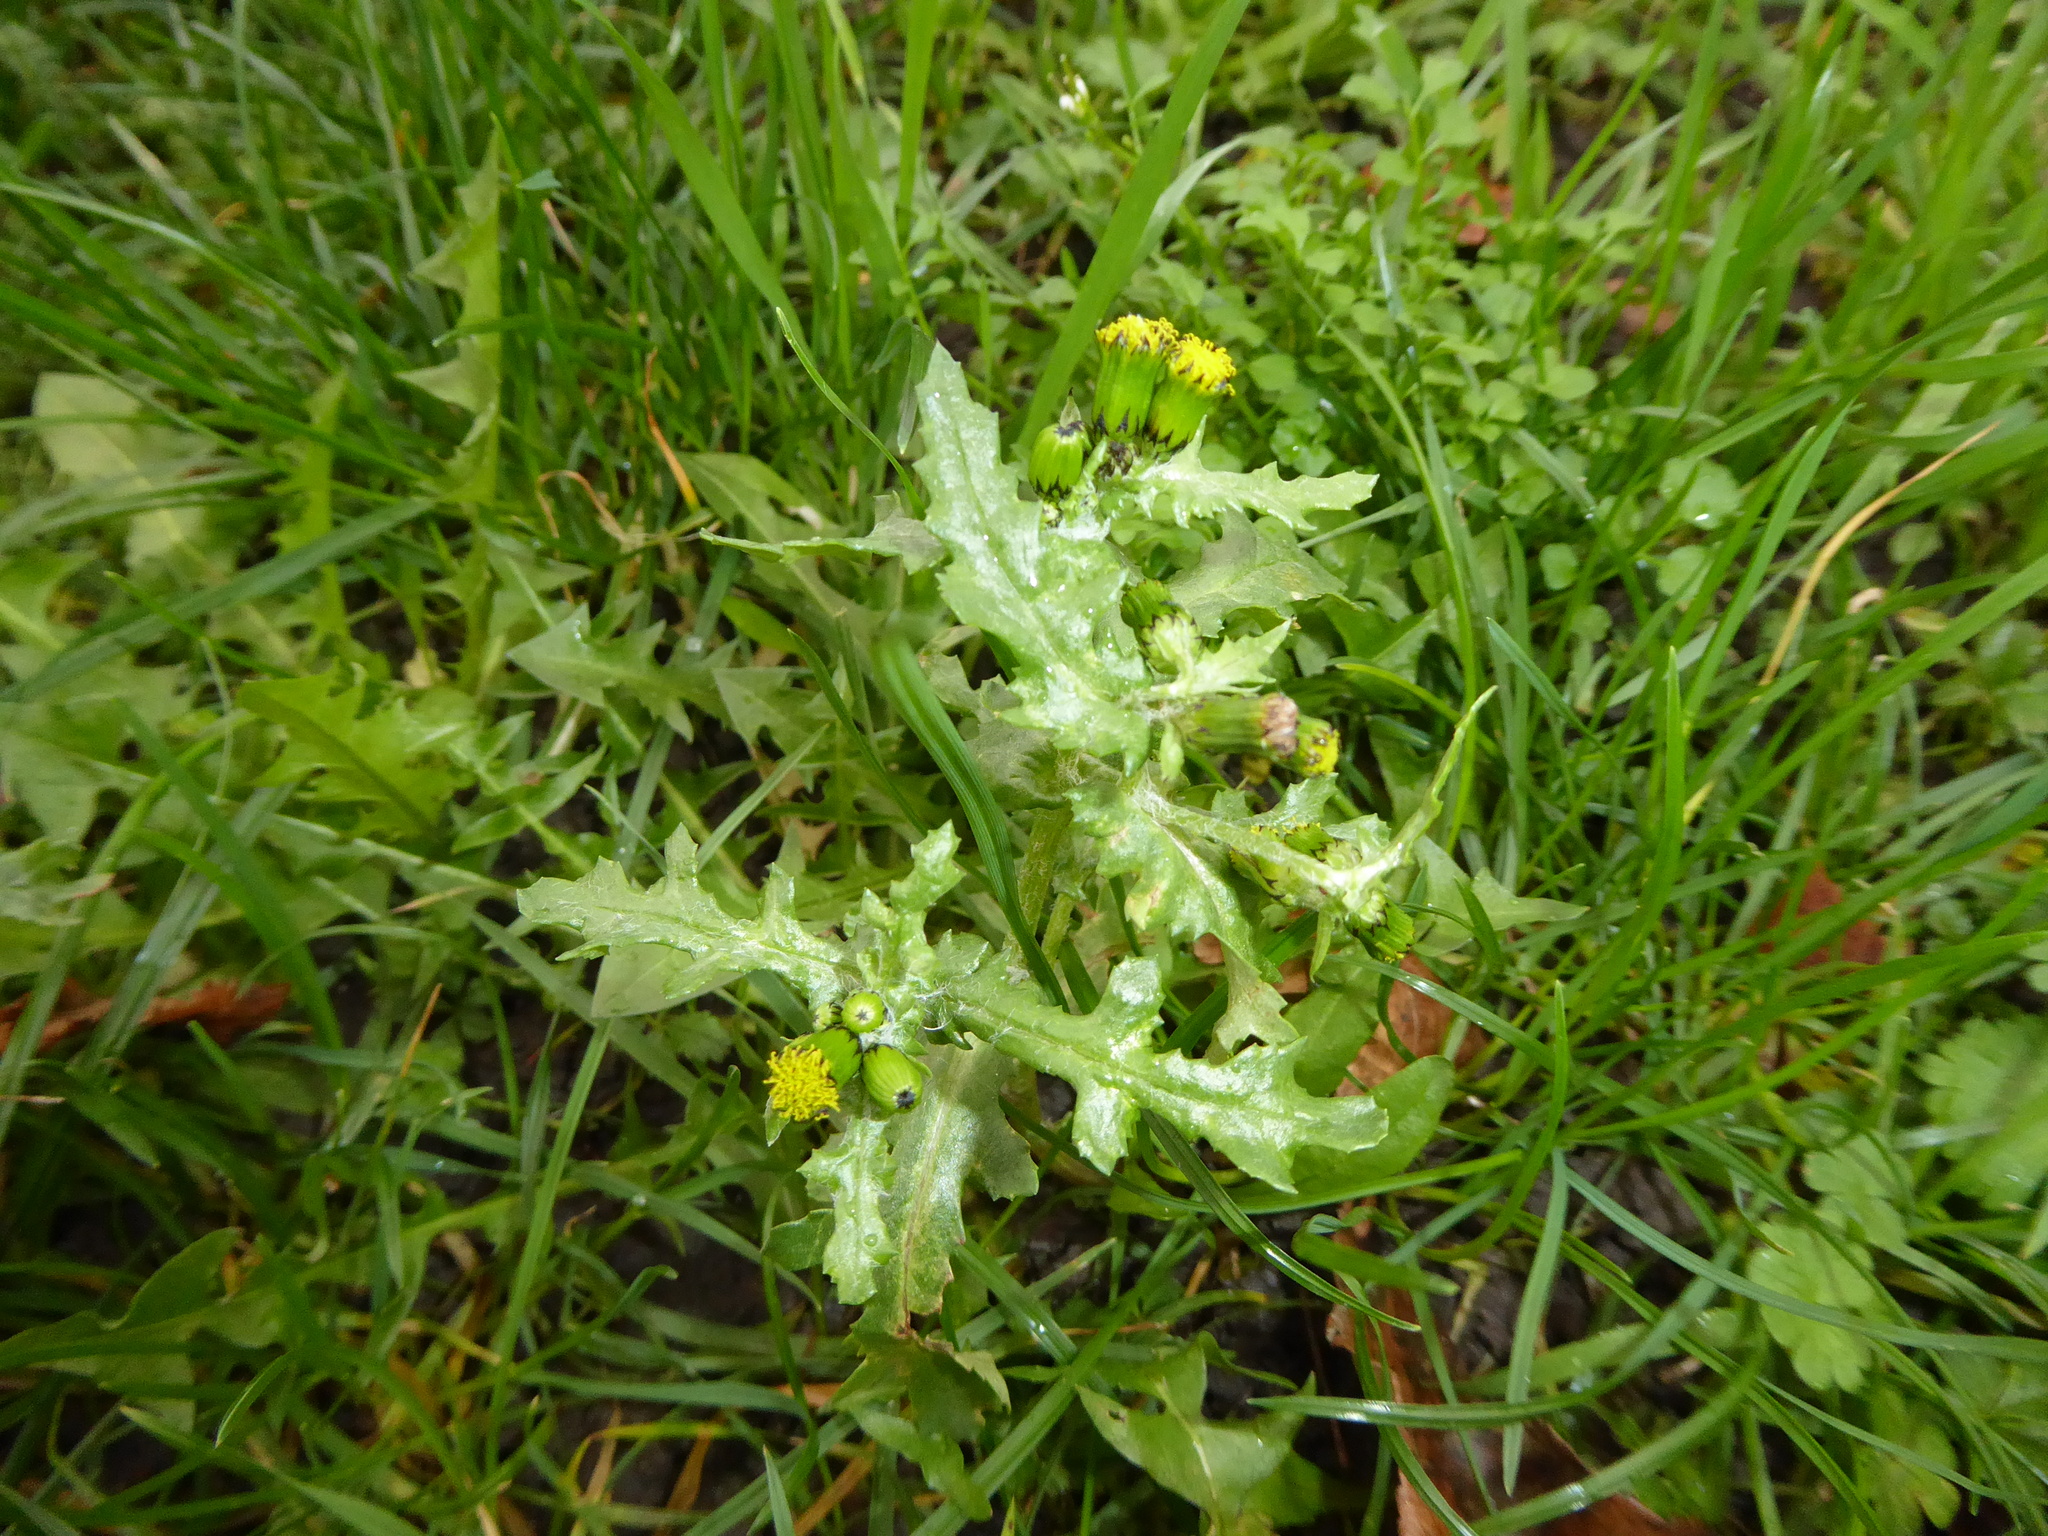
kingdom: Plantae
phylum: Tracheophyta
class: Magnoliopsida
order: Asterales
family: Asteraceae
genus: Senecio
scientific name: Senecio vulgaris
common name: Old-man-in-the-spring
